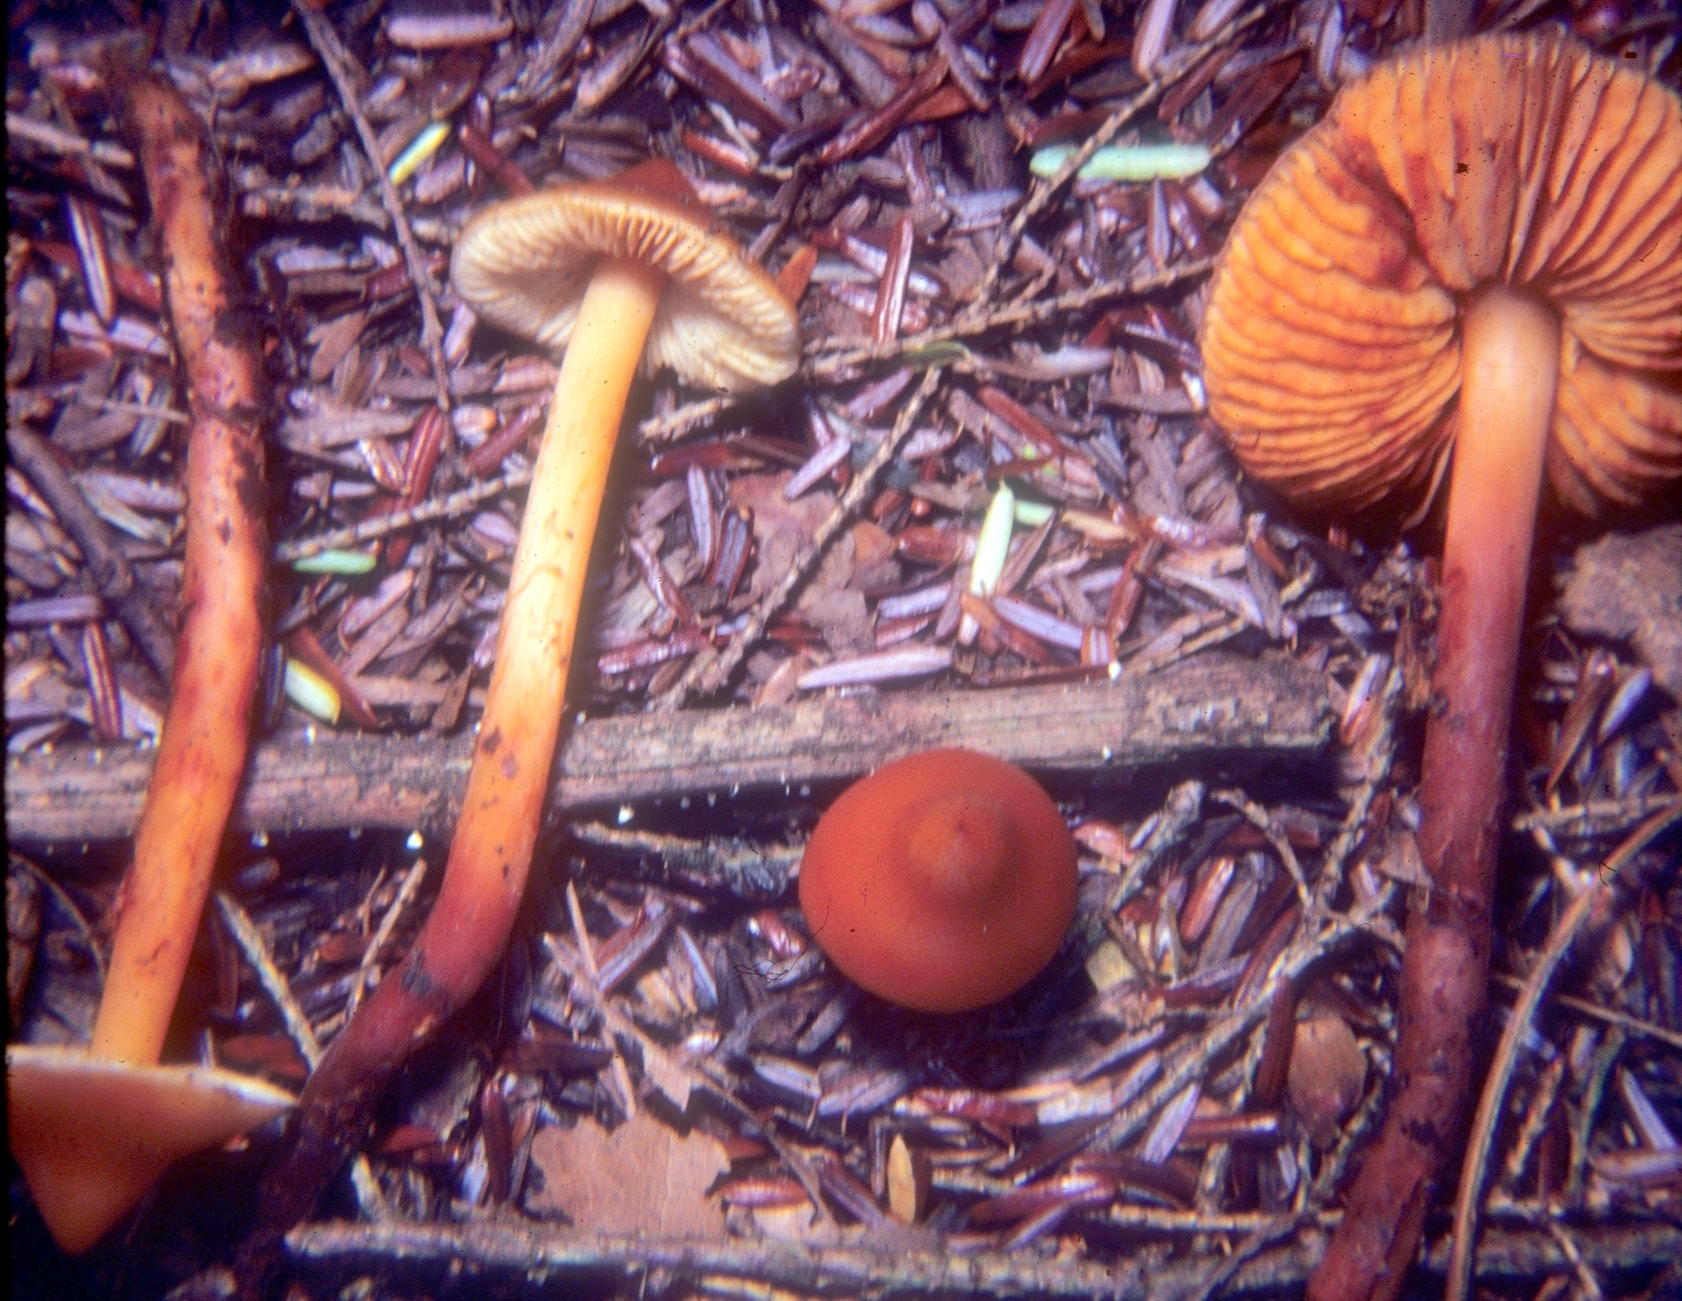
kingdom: Fungi
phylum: Basidiomycota
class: Agaricomycetes
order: Agaricales
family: Hymenogastraceae
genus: Phaeocollybia
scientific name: Phaeocollybia christinae
